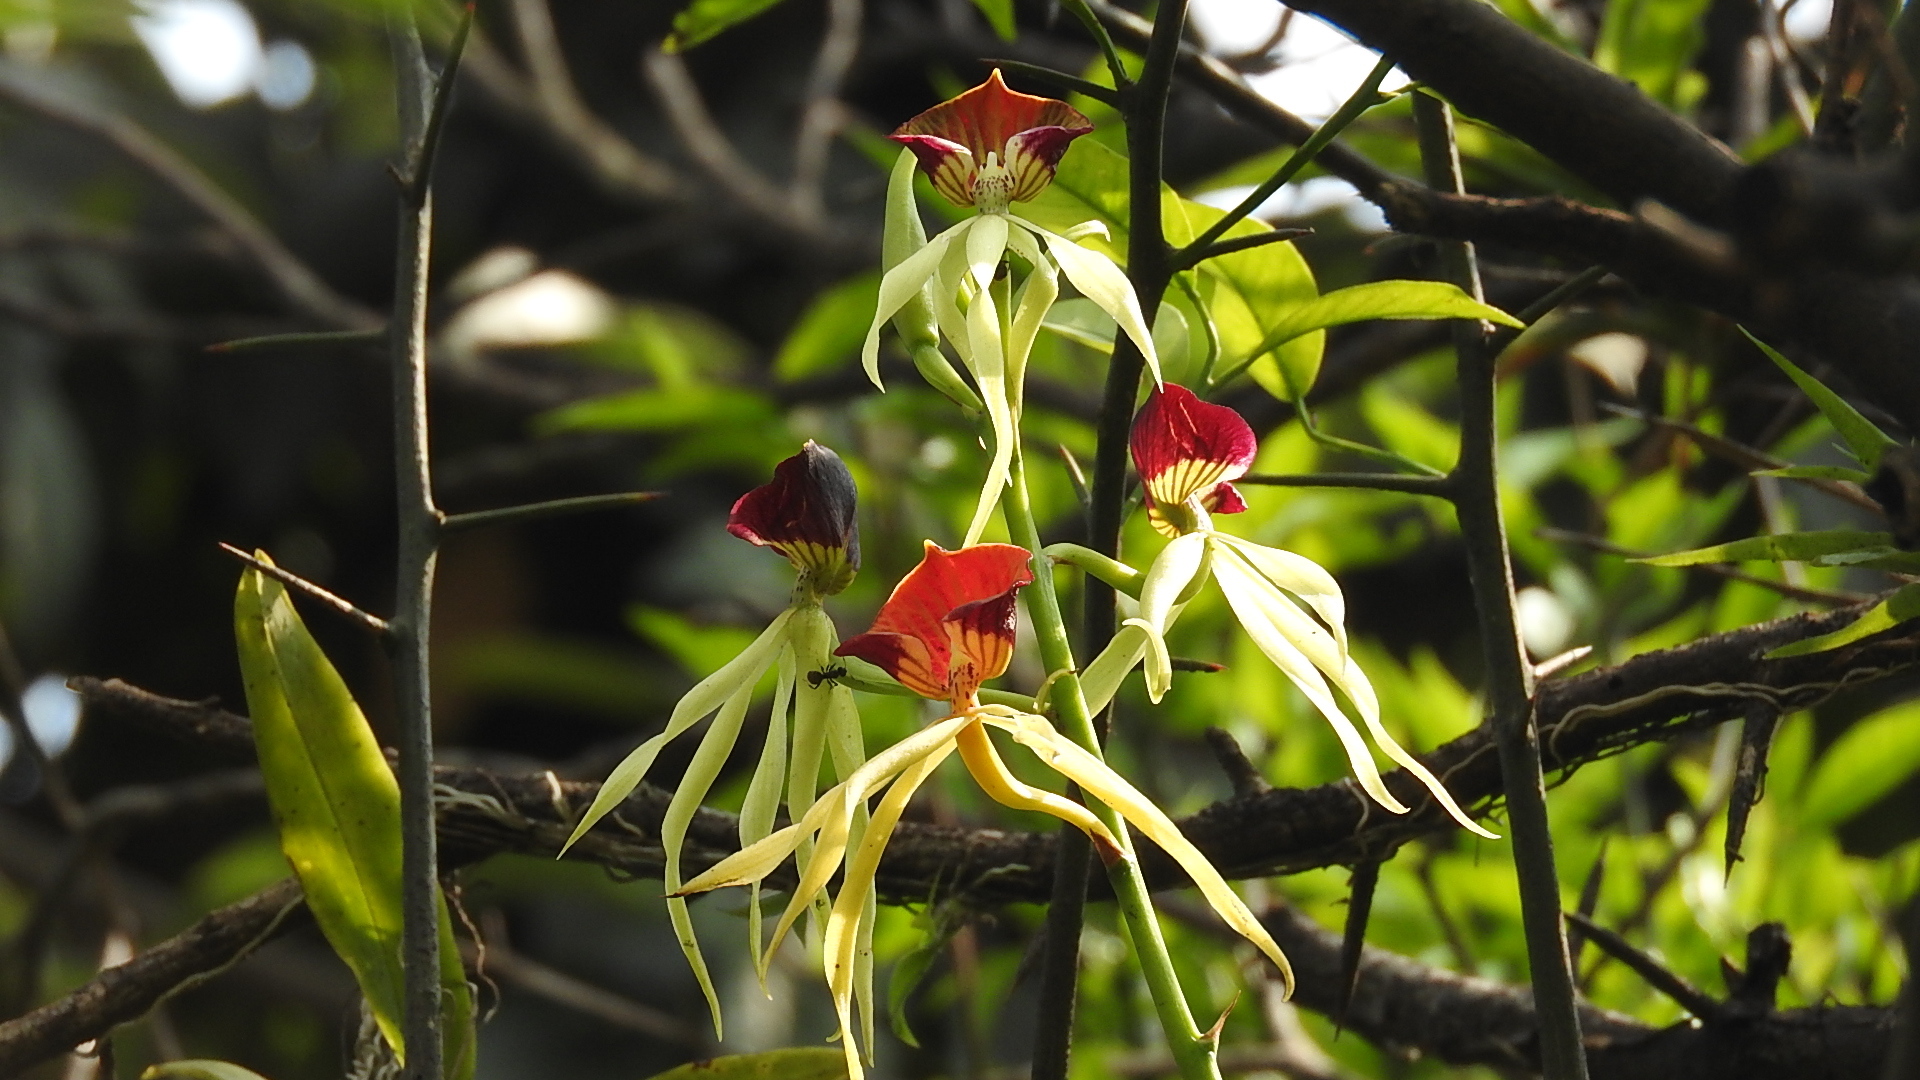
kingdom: Plantae
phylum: Tracheophyta
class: Liliopsida
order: Asparagales
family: Orchidaceae
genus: Prosthechea
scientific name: Prosthechea cochleata
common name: Clamshell orchid
